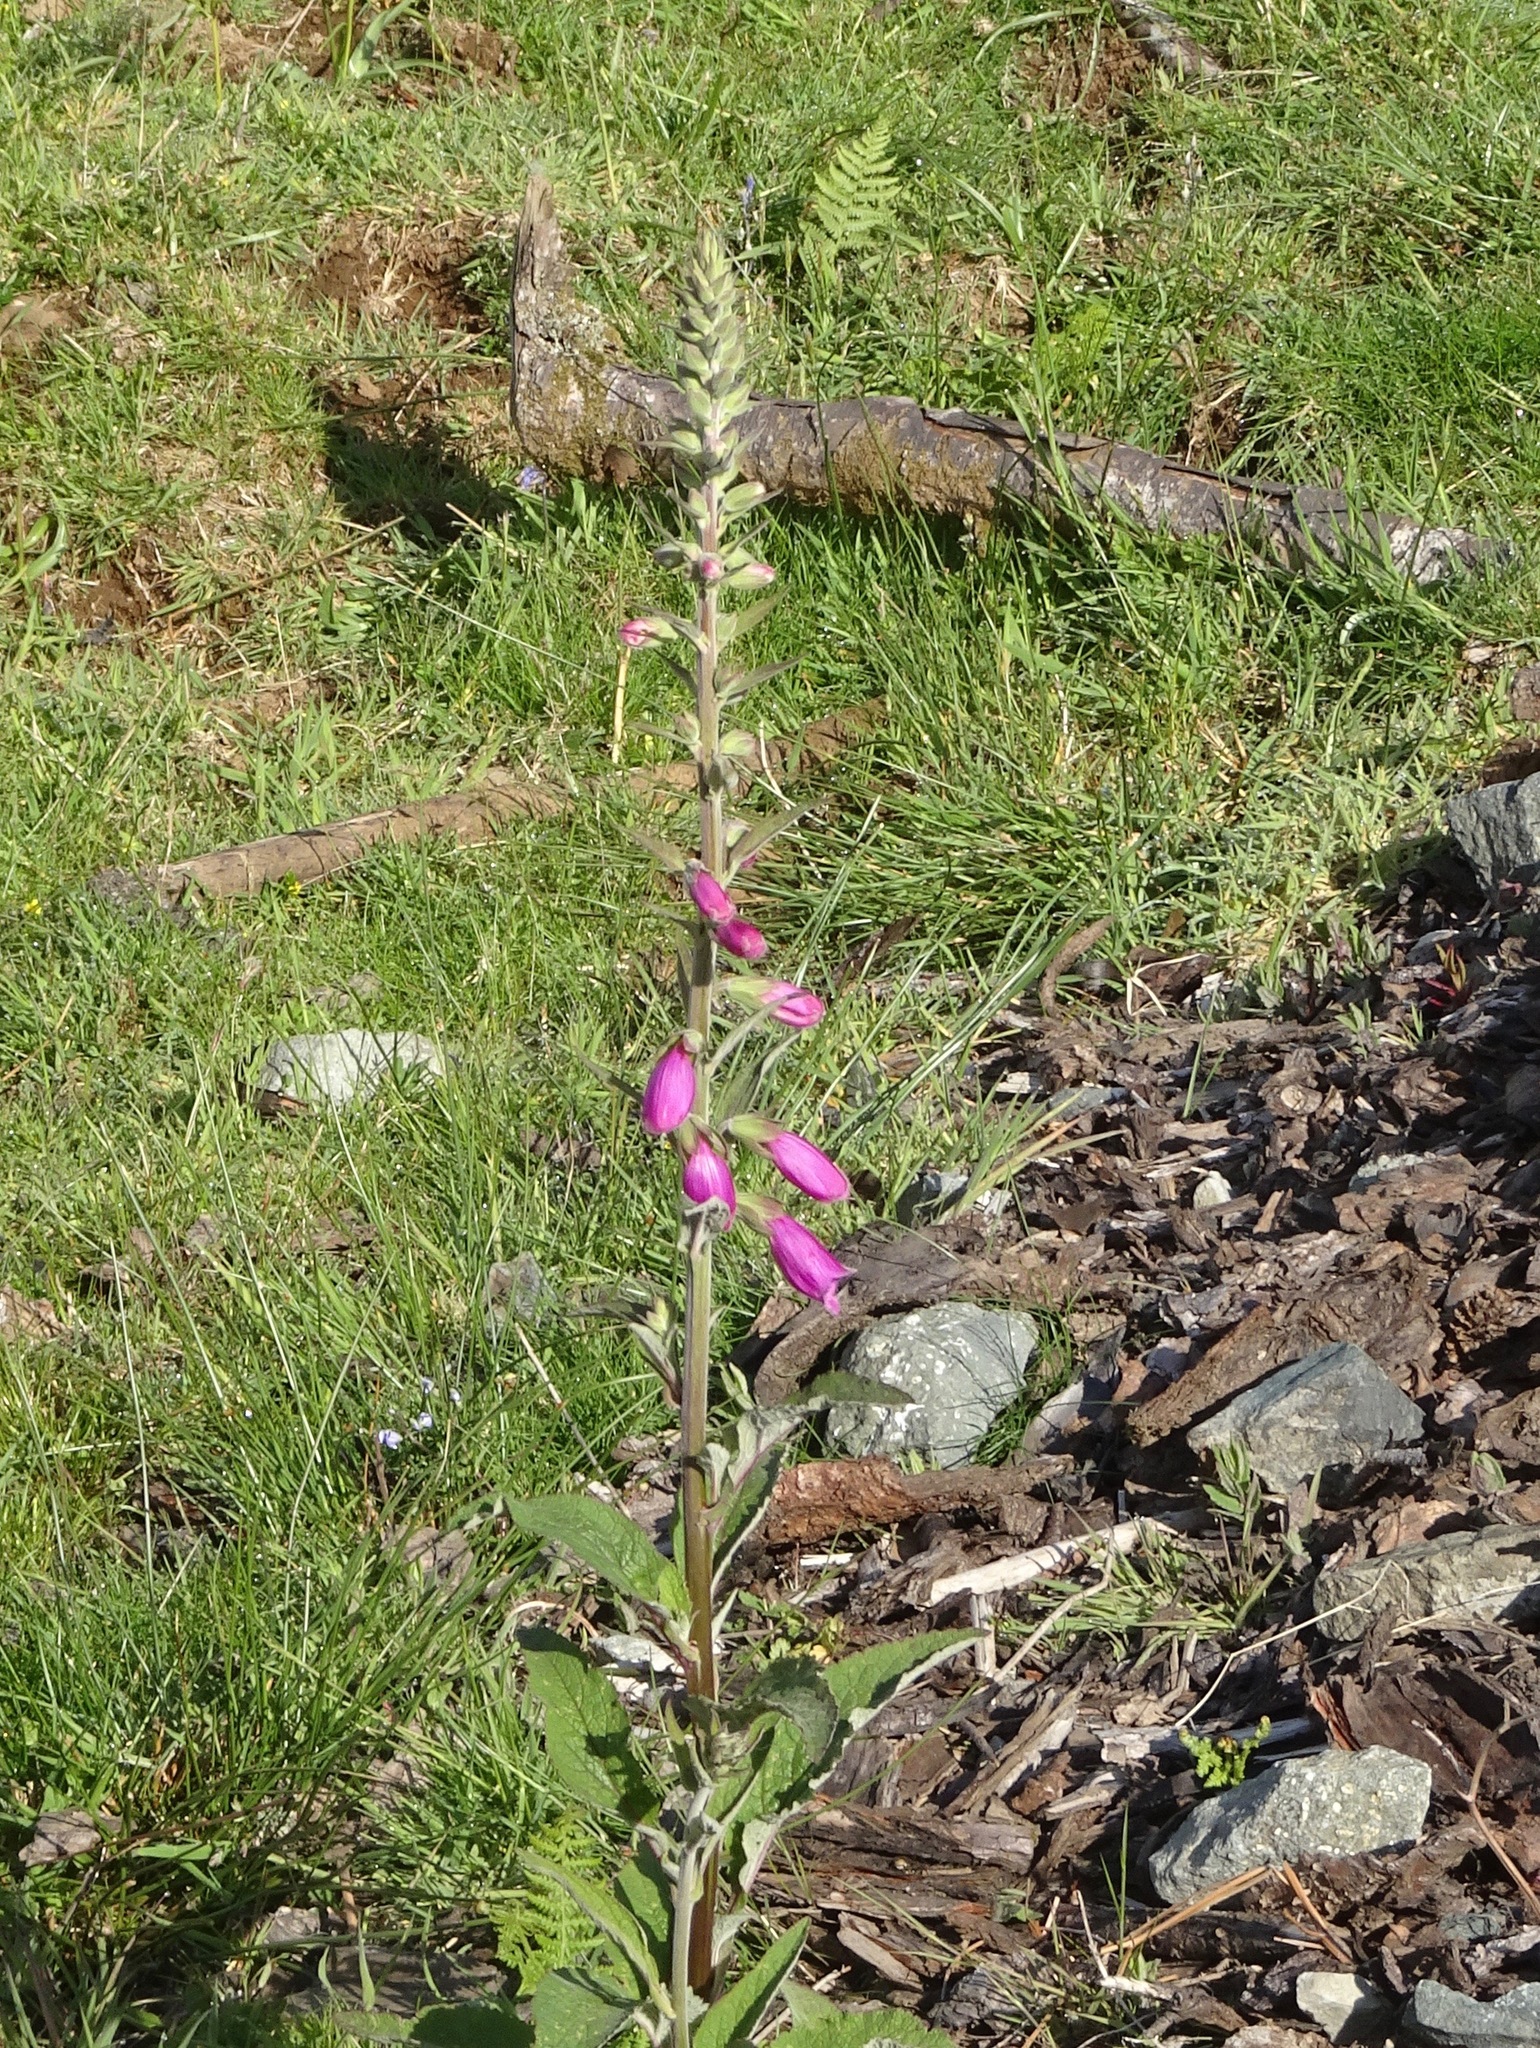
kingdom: Plantae
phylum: Tracheophyta
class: Magnoliopsida
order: Lamiales
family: Plantaginaceae
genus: Digitalis
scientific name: Digitalis purpurea
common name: Foxglove
